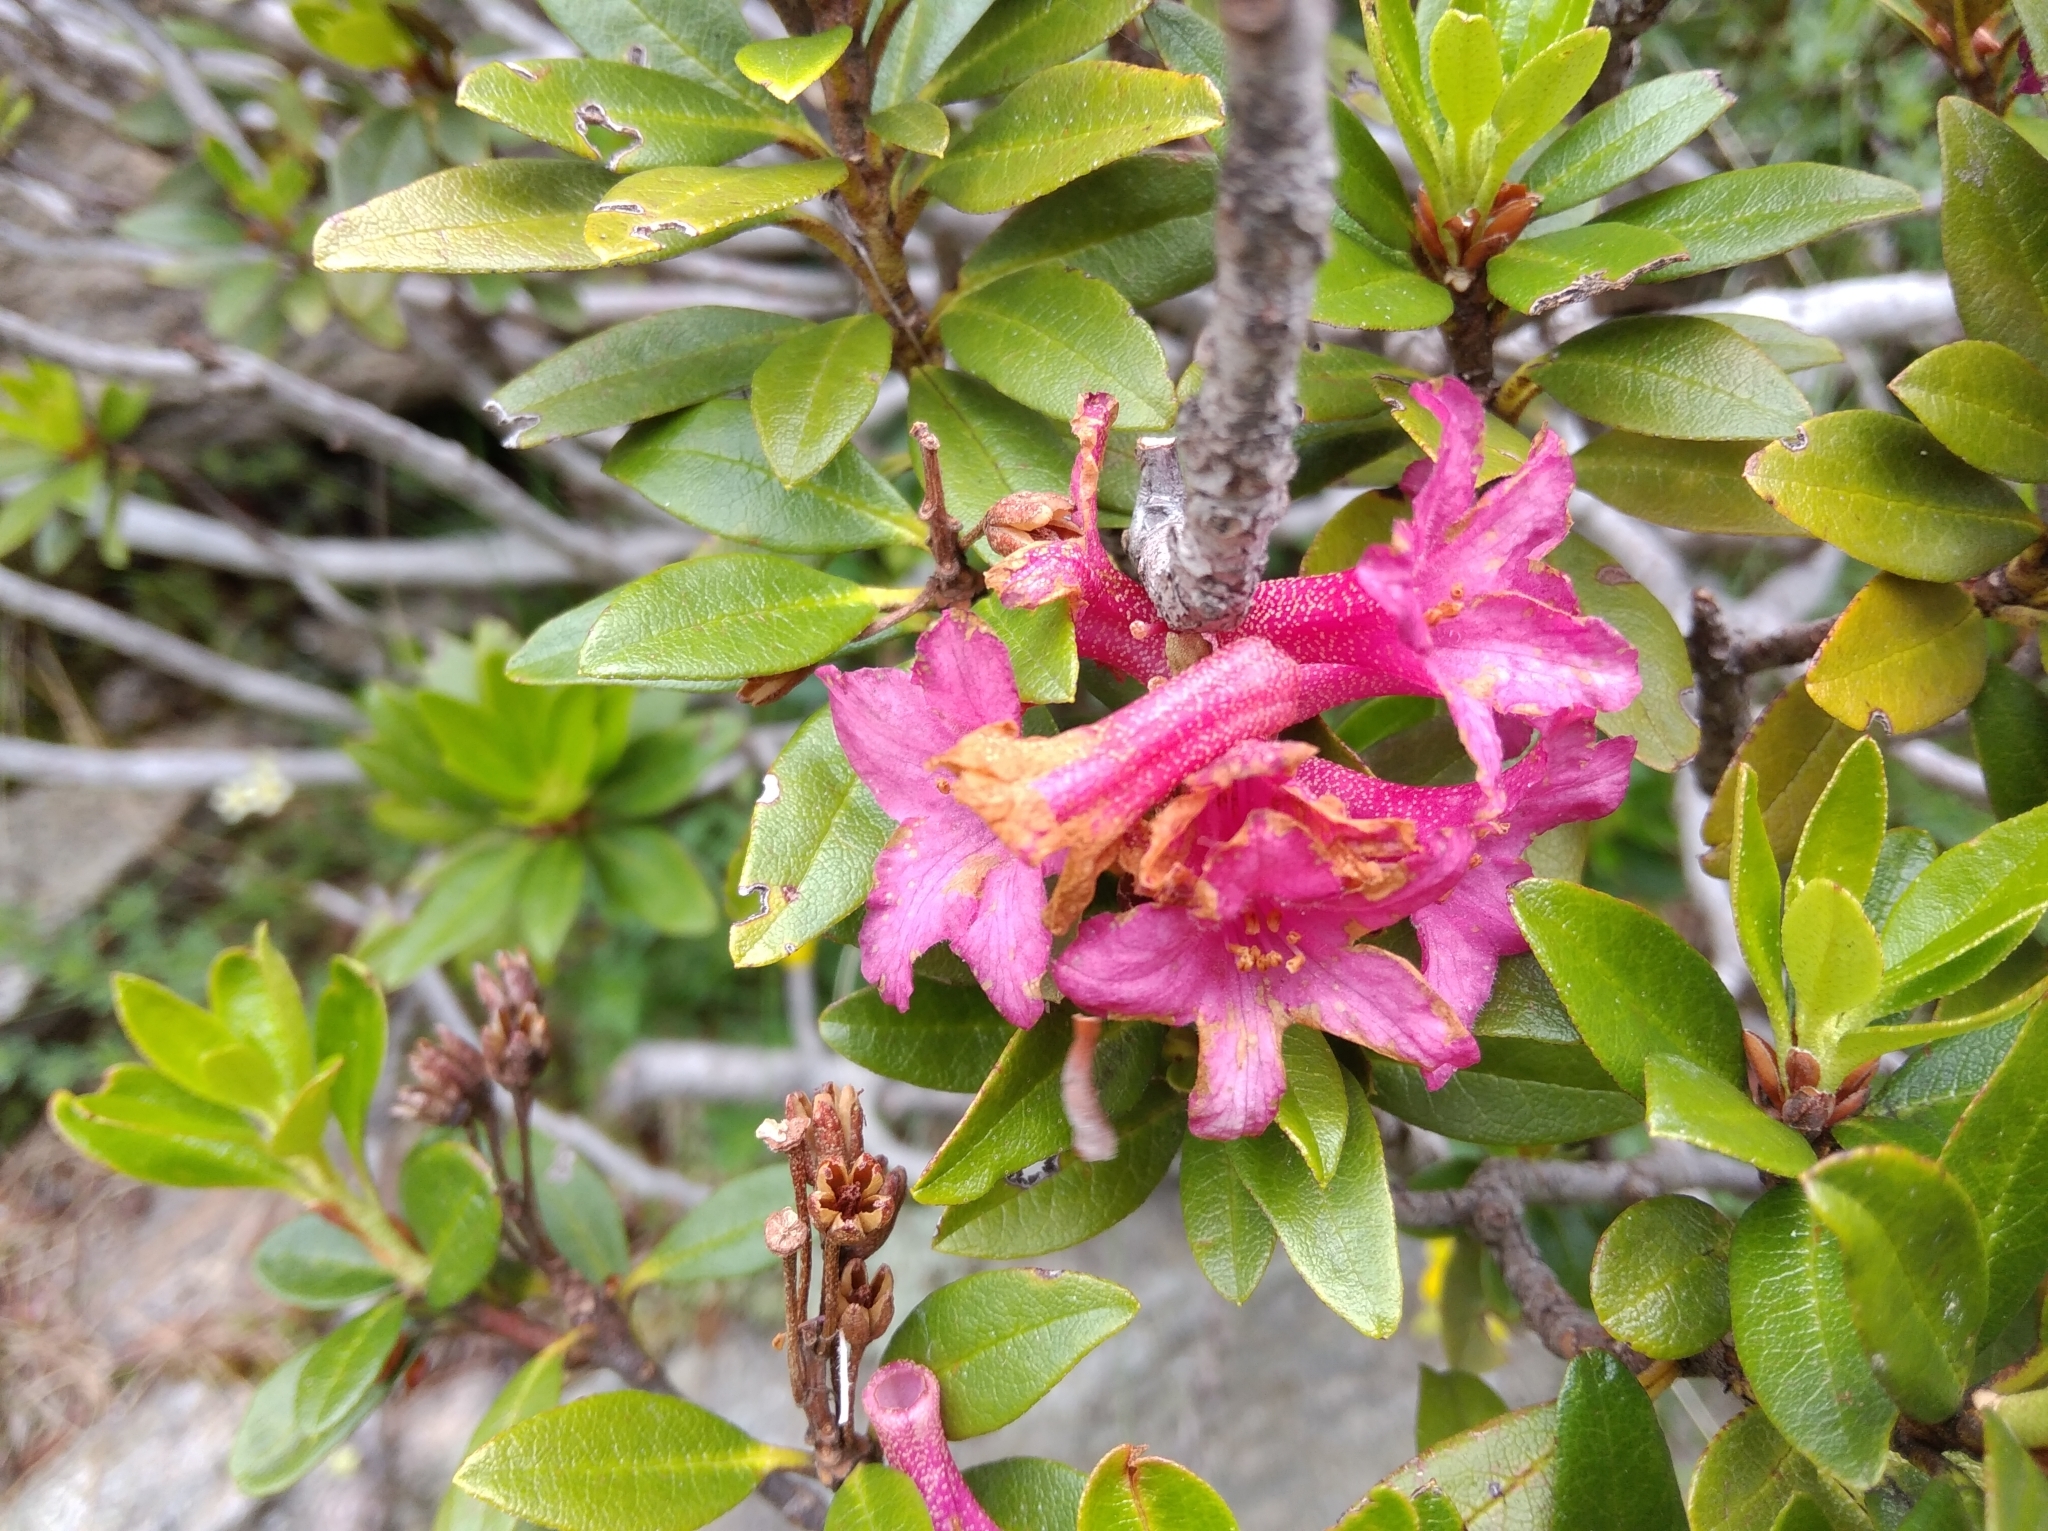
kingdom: Plantae
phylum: Tracheophyta
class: Magnoliopsida
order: Ericales
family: Ericaceae
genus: Rhododendron
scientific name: Rhododendron ferrugineum
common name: Alpenrose
